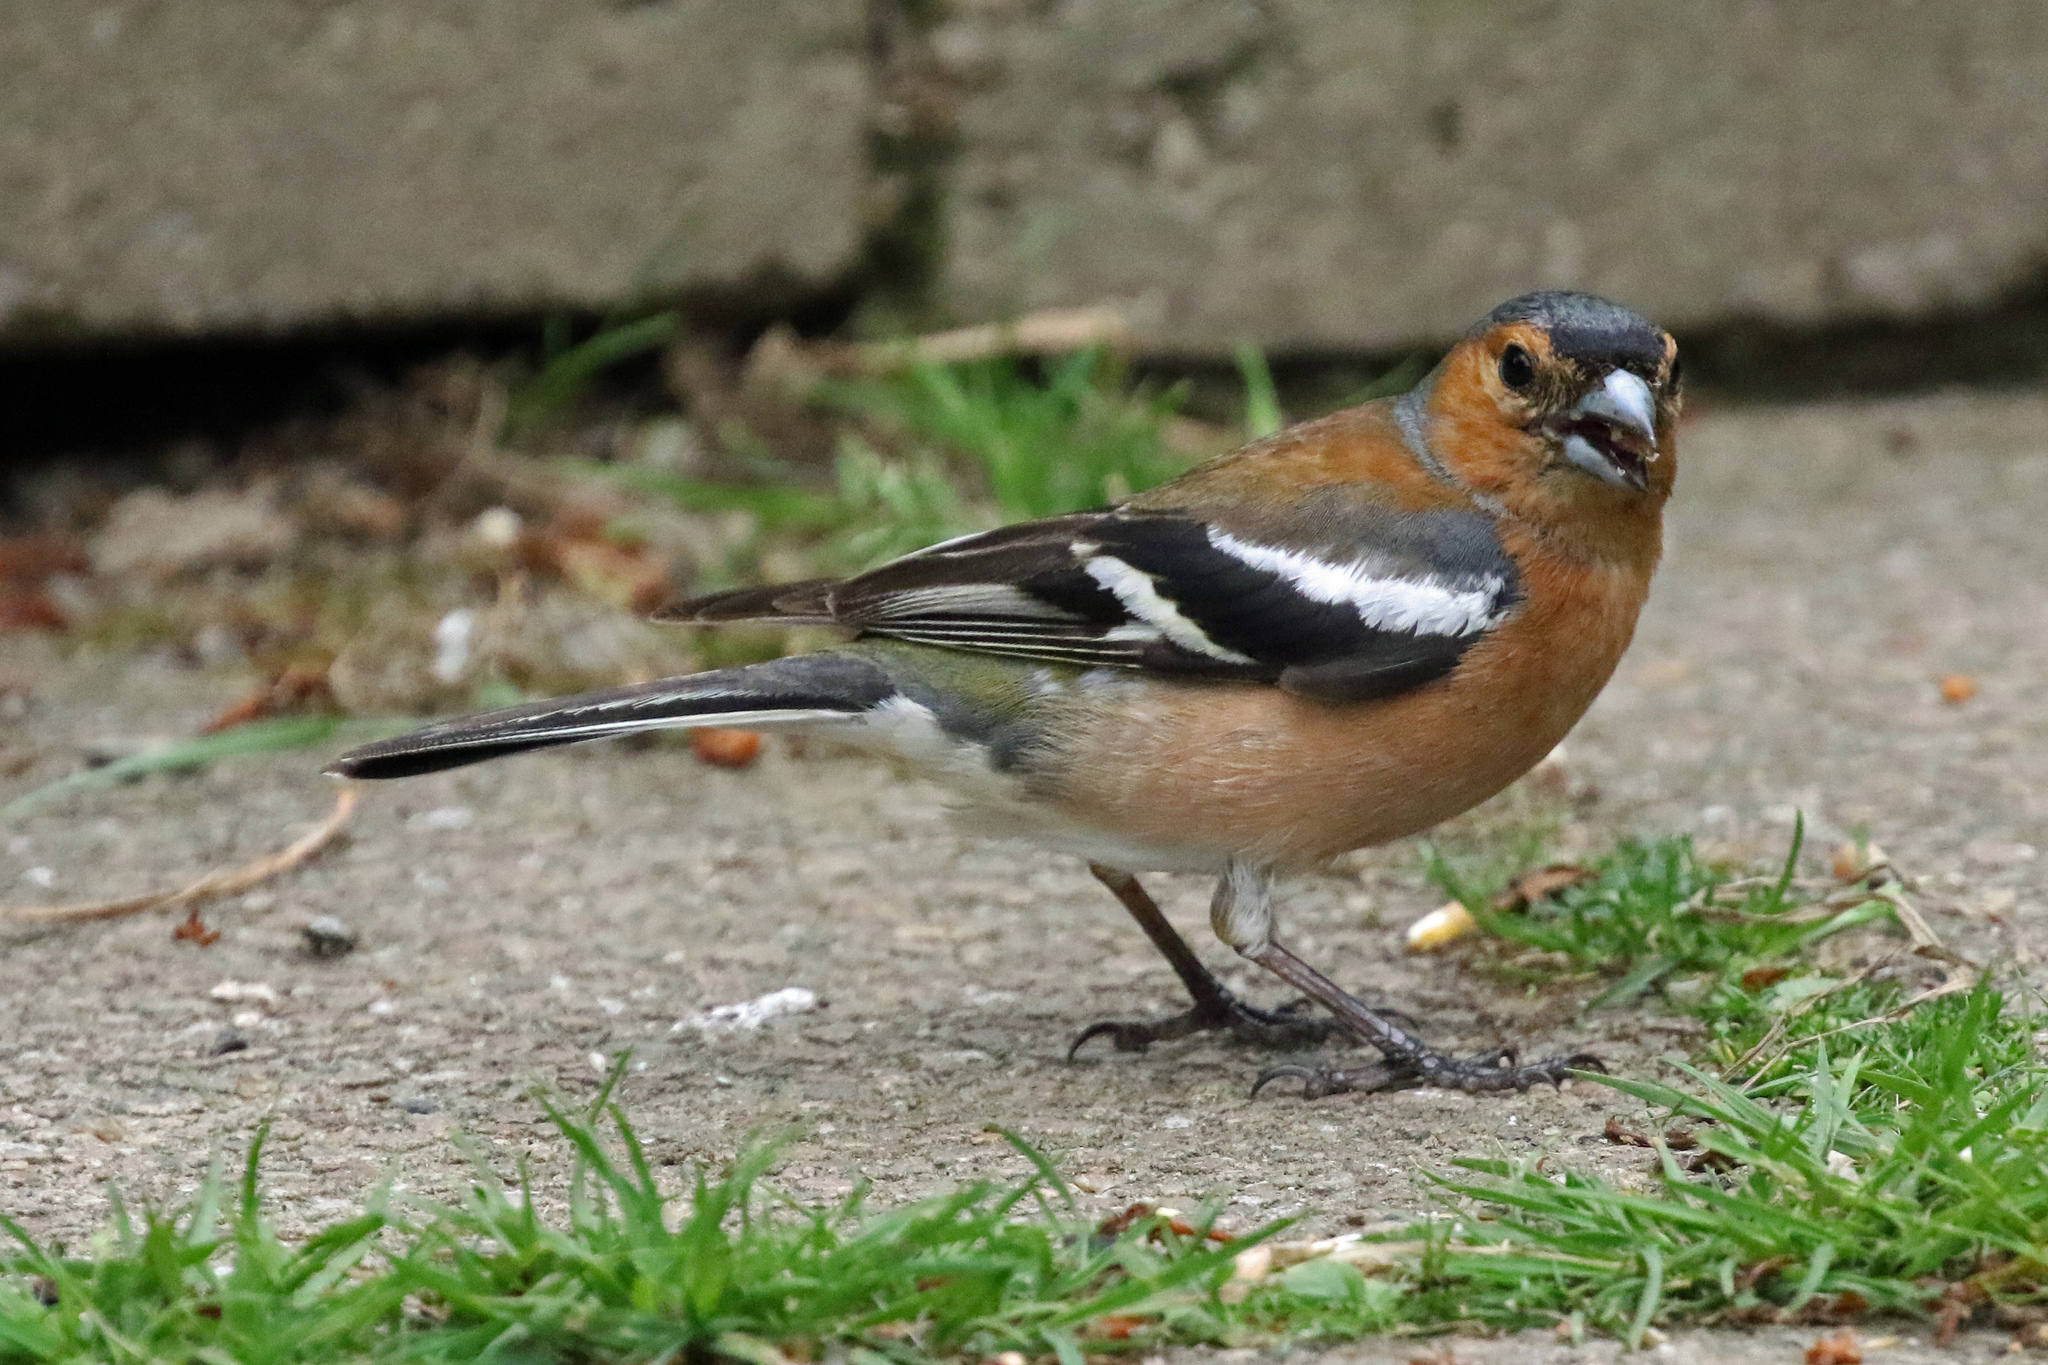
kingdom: Animalia
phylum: Chordata
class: Aves
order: Passeriformes
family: Fringillidae
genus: Fringilla
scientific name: Fringilla coelebs
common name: Common chaffinch
